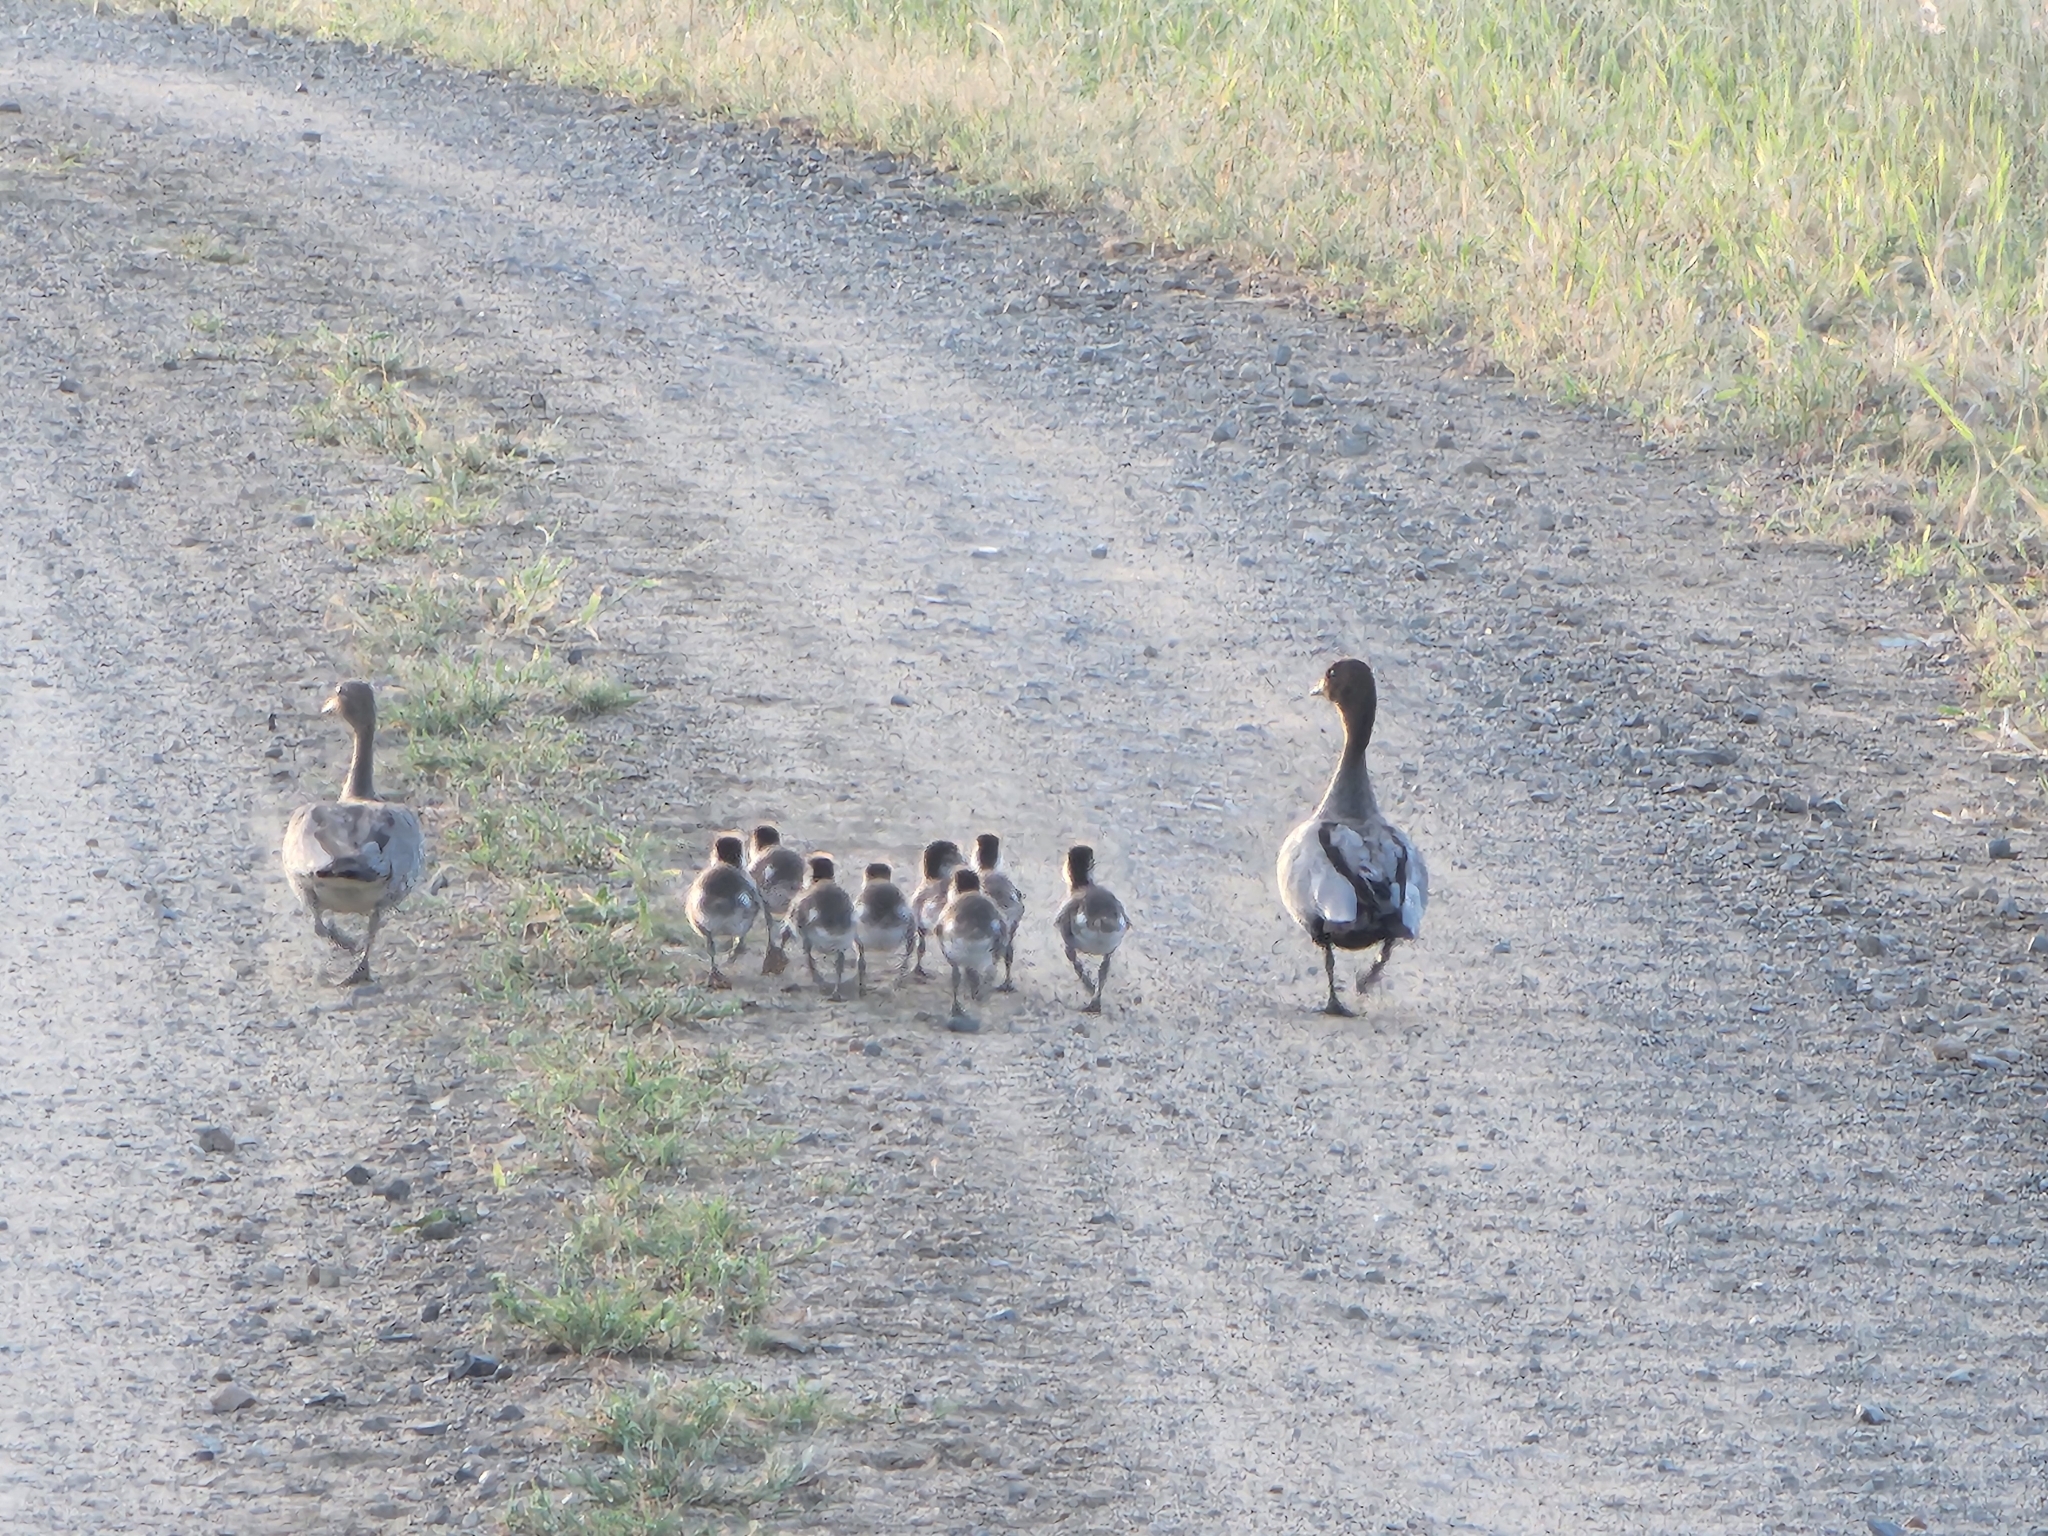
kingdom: Animalia
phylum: Chordata
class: Aves
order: Anseriformes
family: Anatidae
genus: Chenonetta
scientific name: Chenonetta jubata
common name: Maned duck
